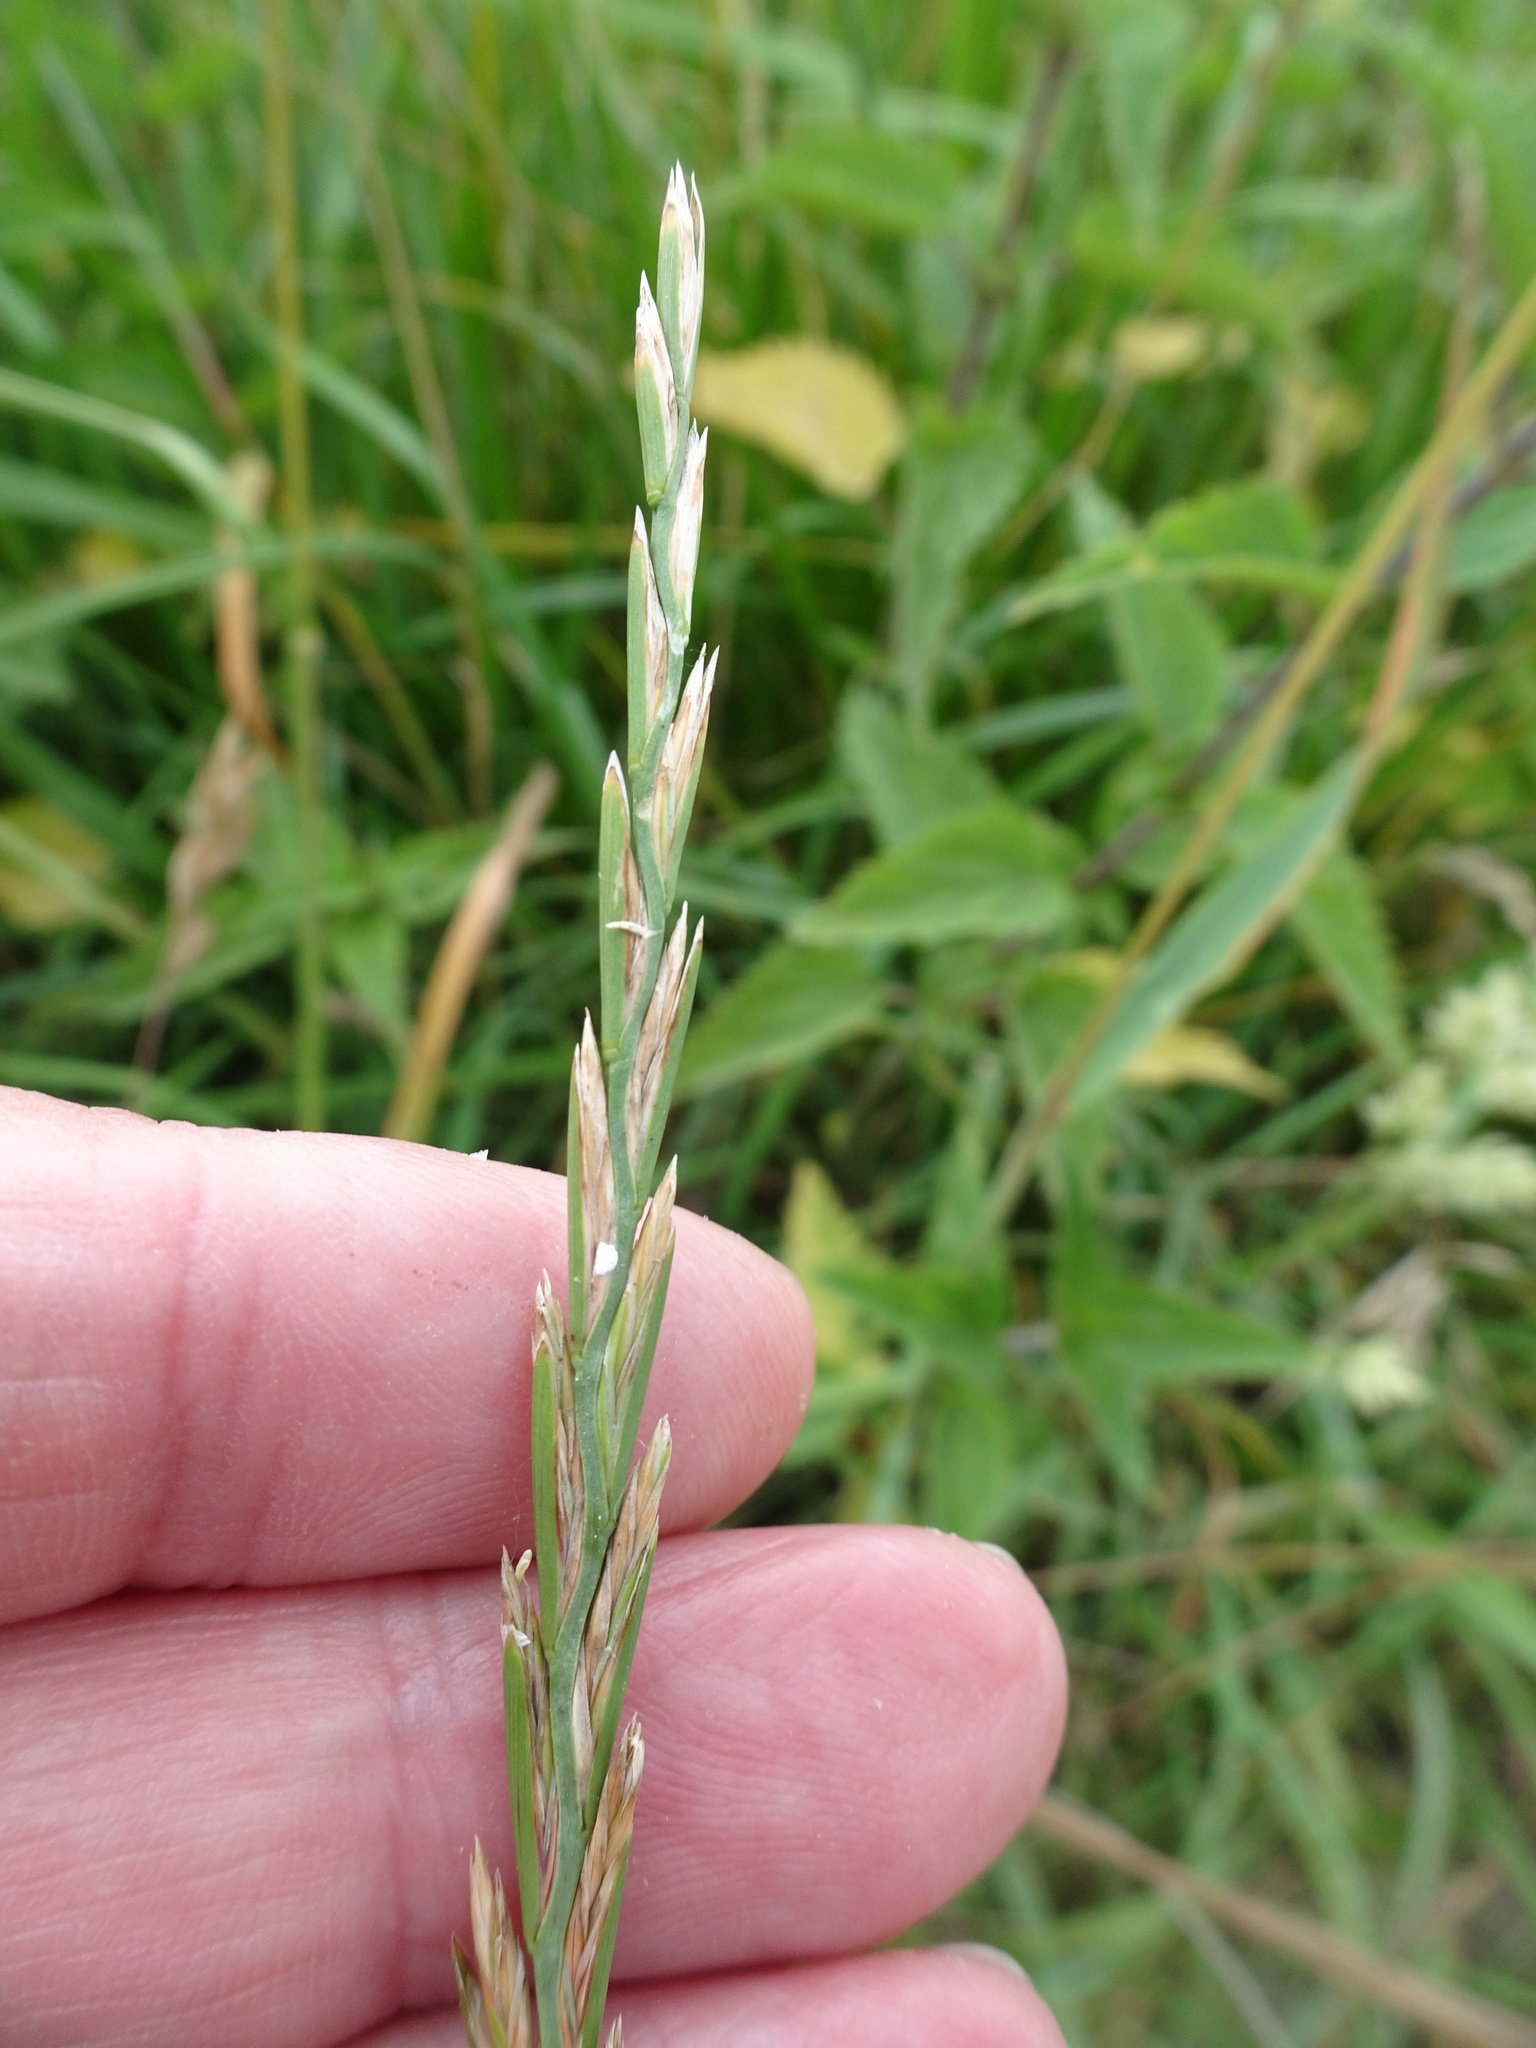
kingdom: Plantae
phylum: Tracheophyta
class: Liliopsida
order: Poales
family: Poaceae
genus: Lolium
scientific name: Lolium perenne
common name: Perennial ryegrass
